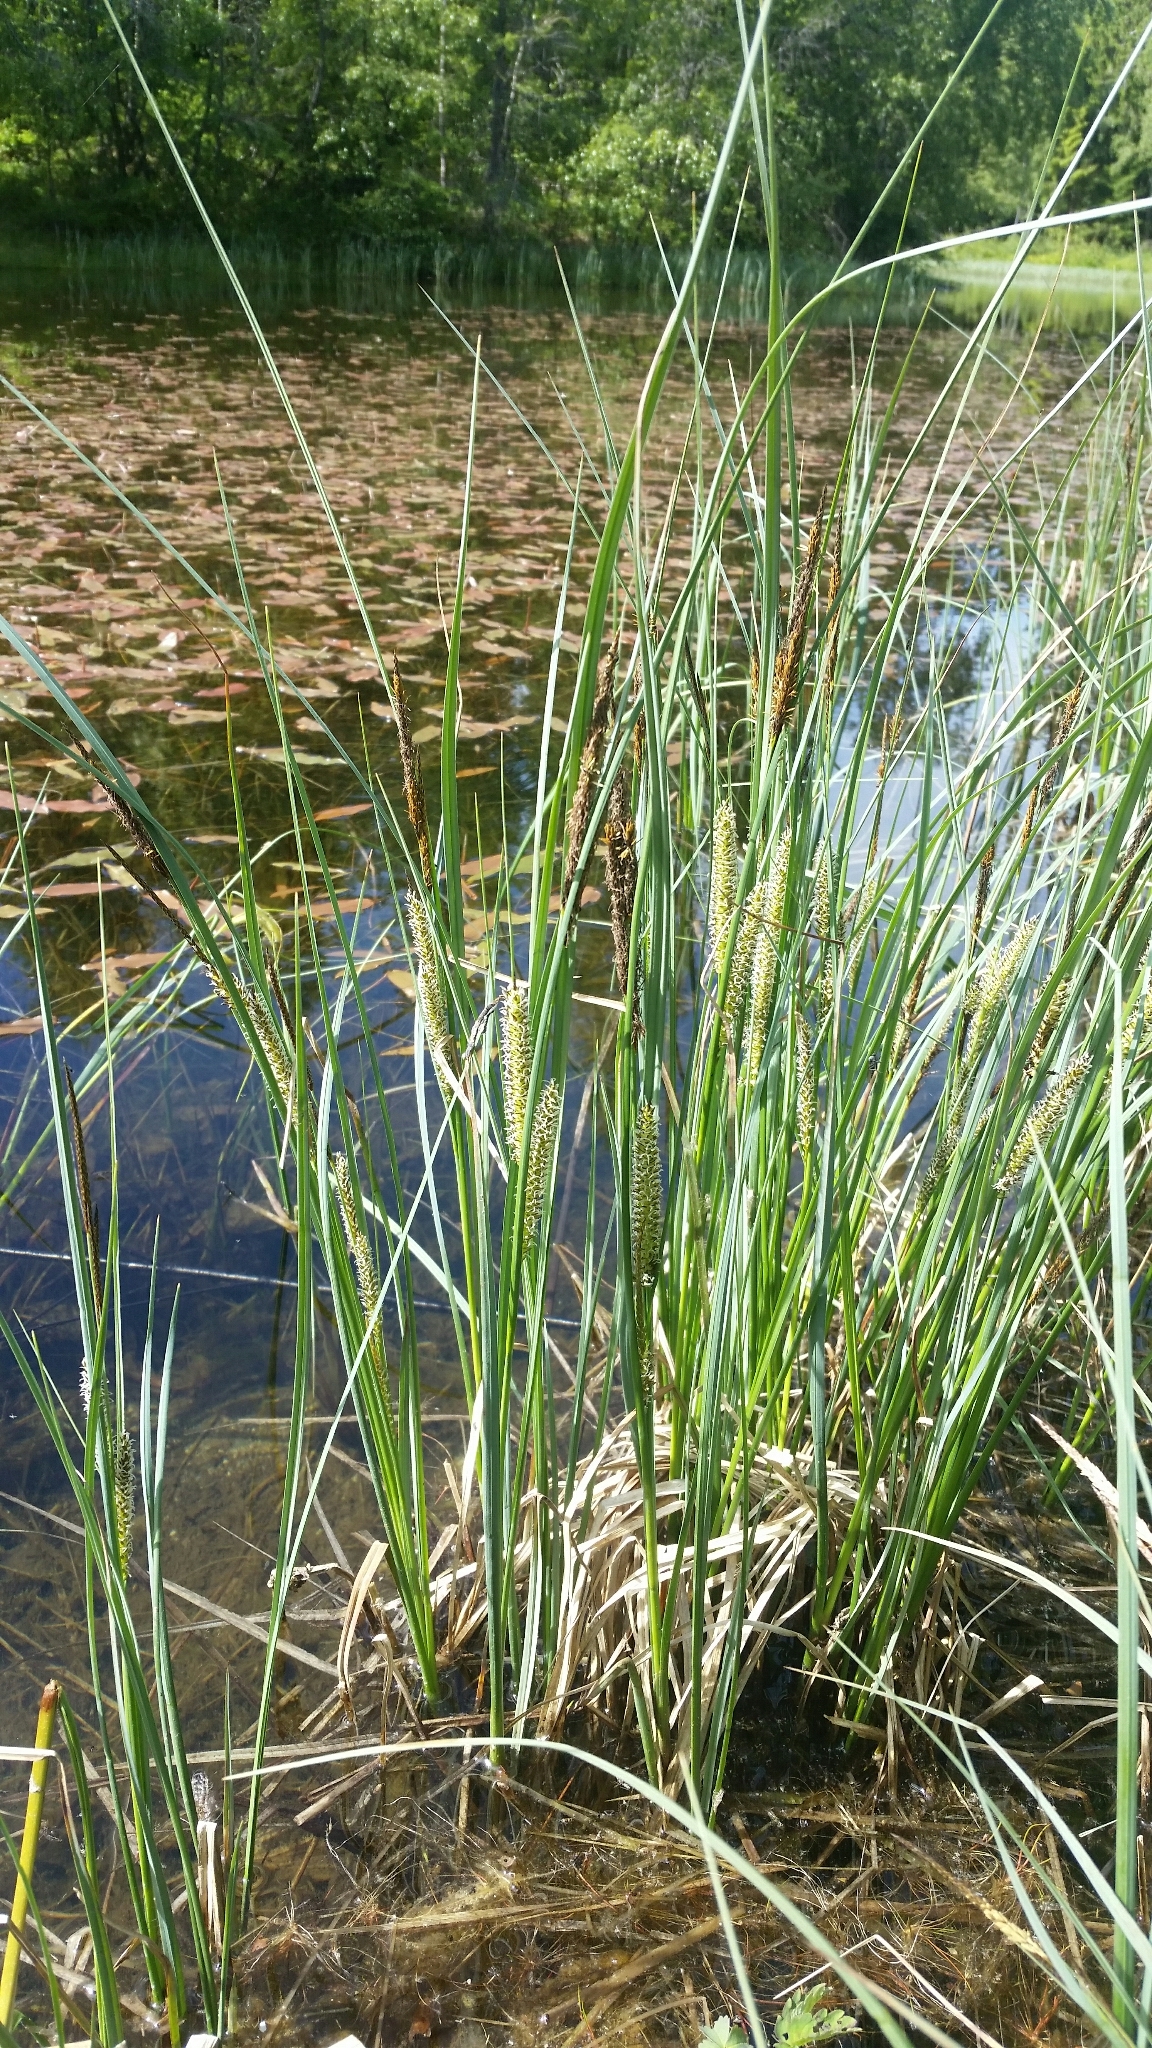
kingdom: Plantae
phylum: Tracheophyta
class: Liliopsida
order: Poales
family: Cyperaceae
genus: Carex
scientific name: Carex rostrata
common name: Bottle sedge
